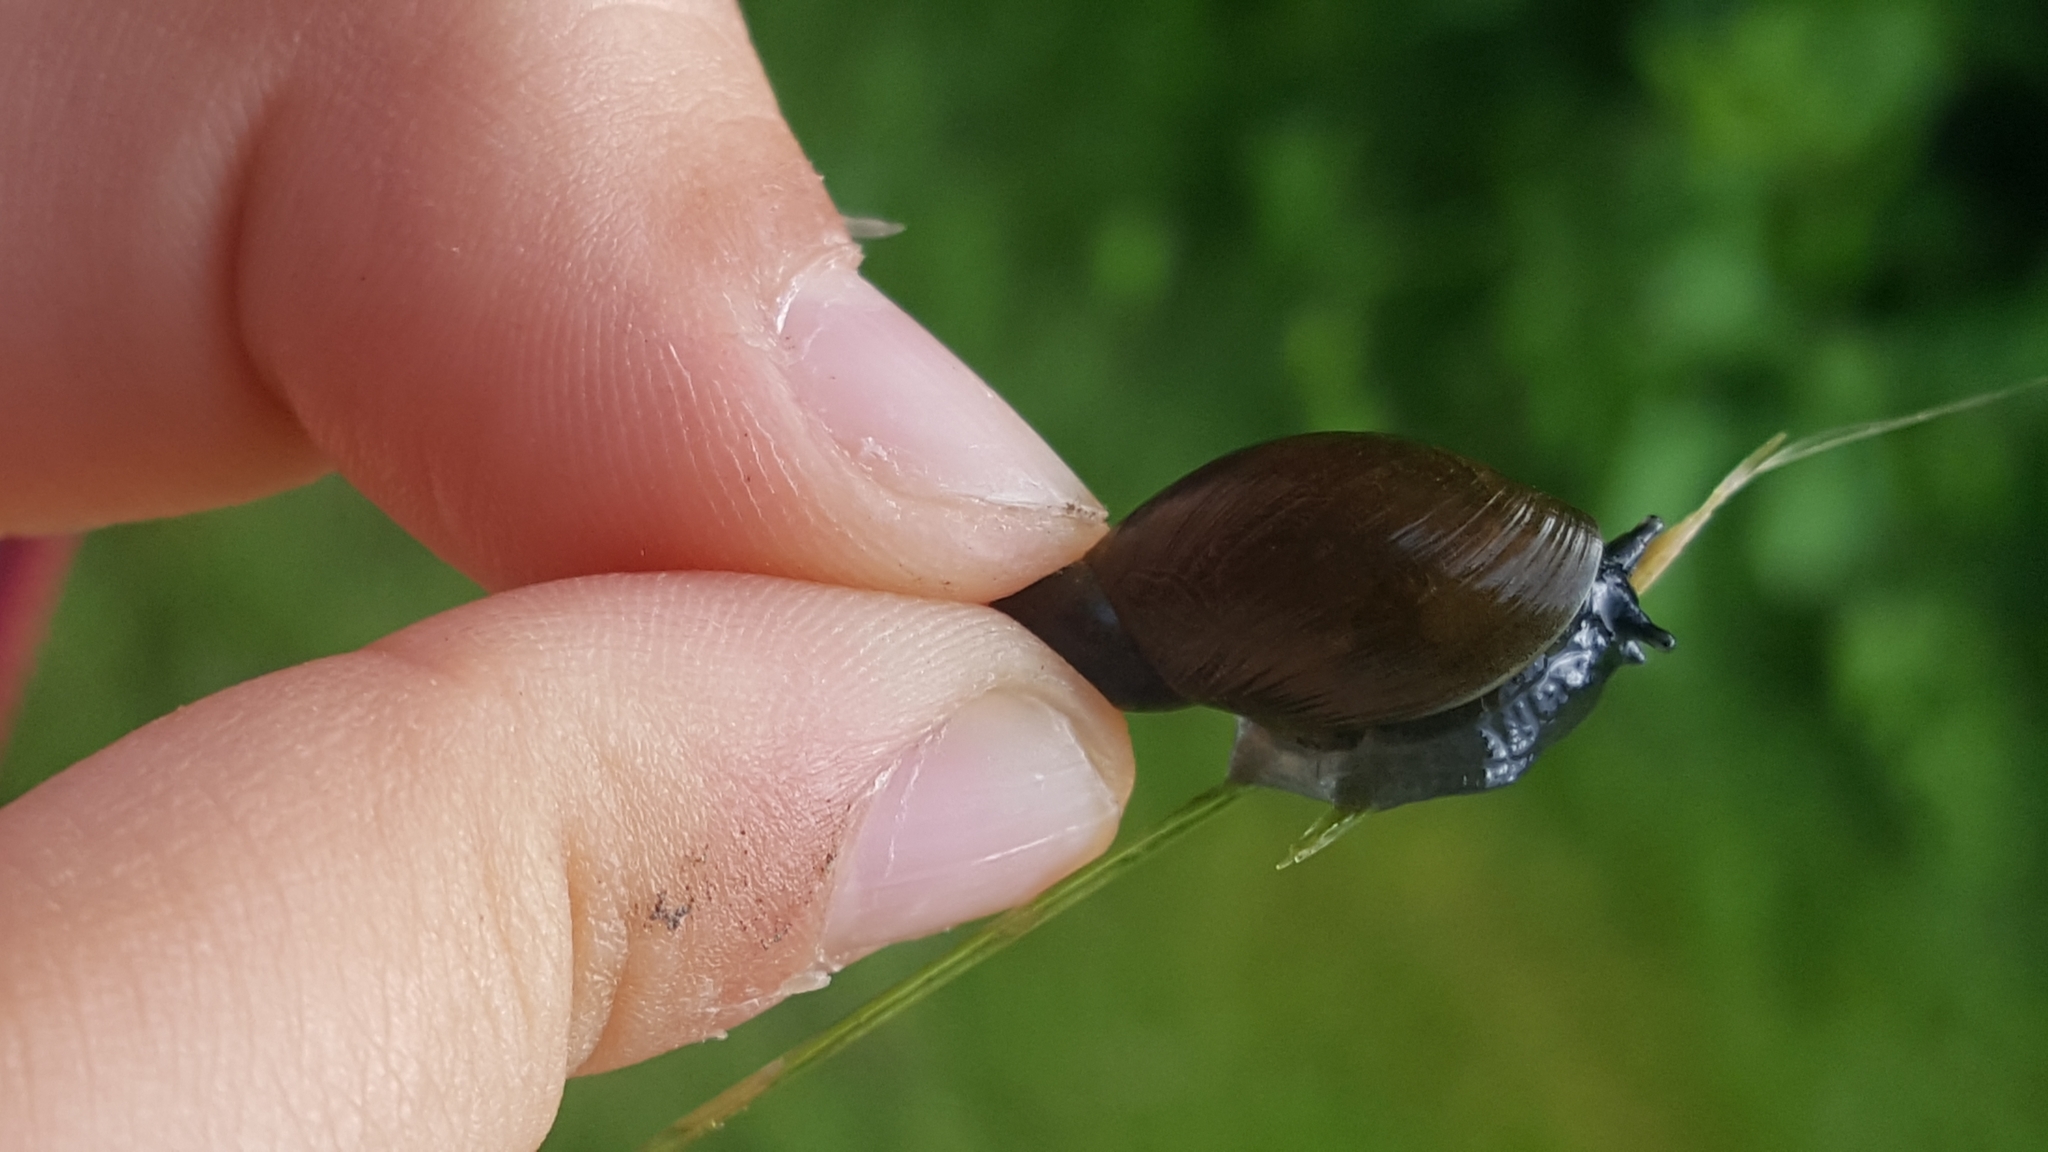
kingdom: Animalia
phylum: Mollusca
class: Gastropoda
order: Stylommatophora
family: Succineidae
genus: Succinea
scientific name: Succinea putris
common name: European ambersnail
